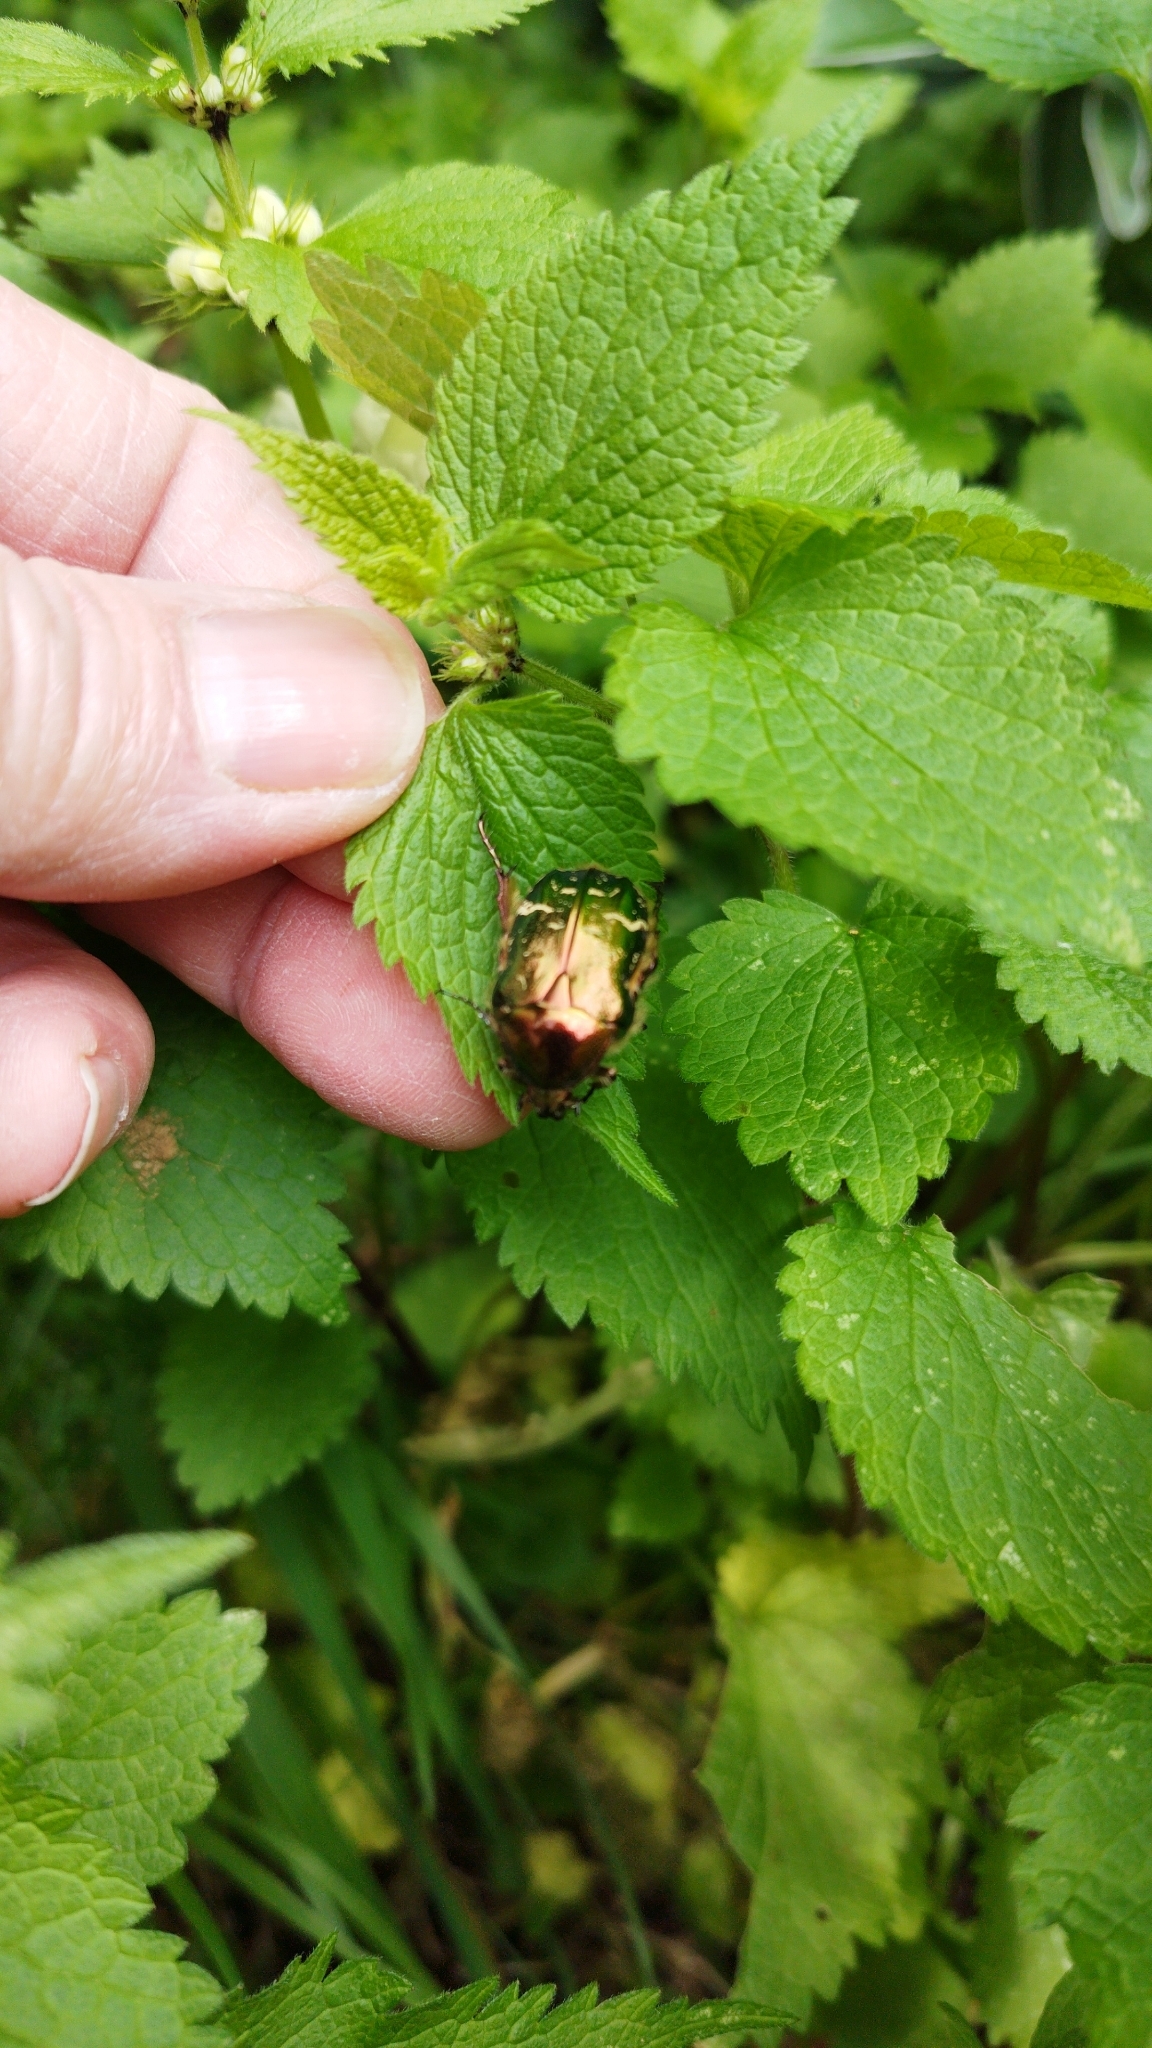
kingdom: Animalia
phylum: Arthropoda
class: Insecta
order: Coleoptera
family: Scarabaeidae
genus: Cetonia
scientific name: Cetonia aurata
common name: Rose chafer
